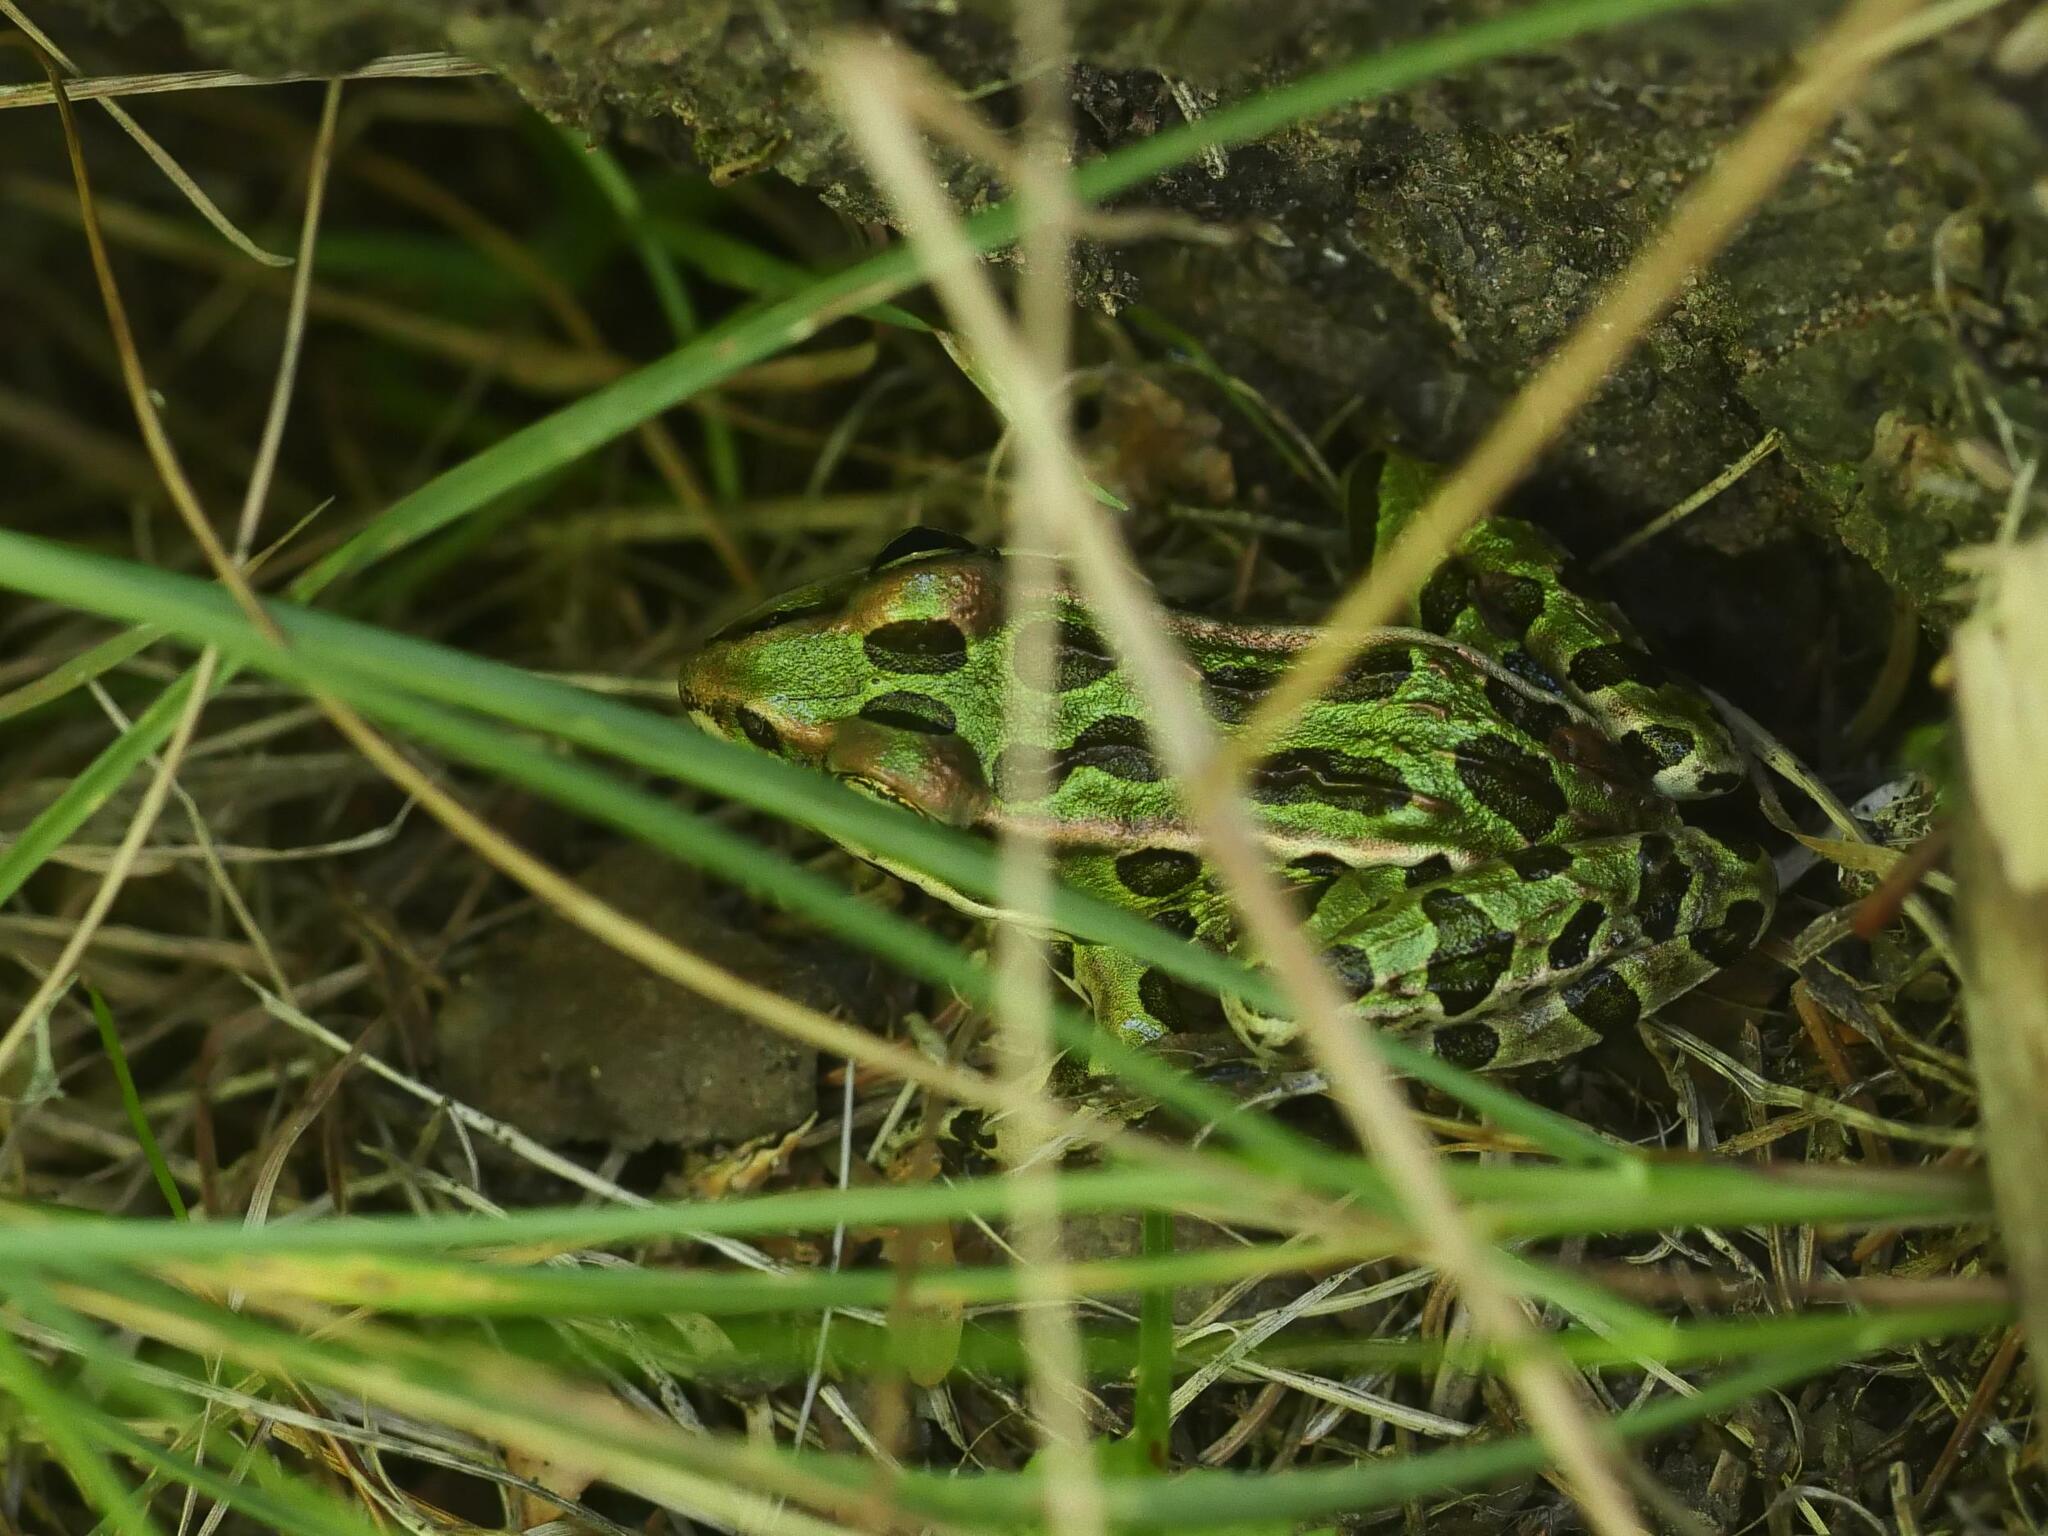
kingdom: Animalia
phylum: Chordata
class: Amphibia
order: Anura
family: Ranidae
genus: Lithobates
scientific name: Lithobates pipiens
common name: Northern leopard frog
